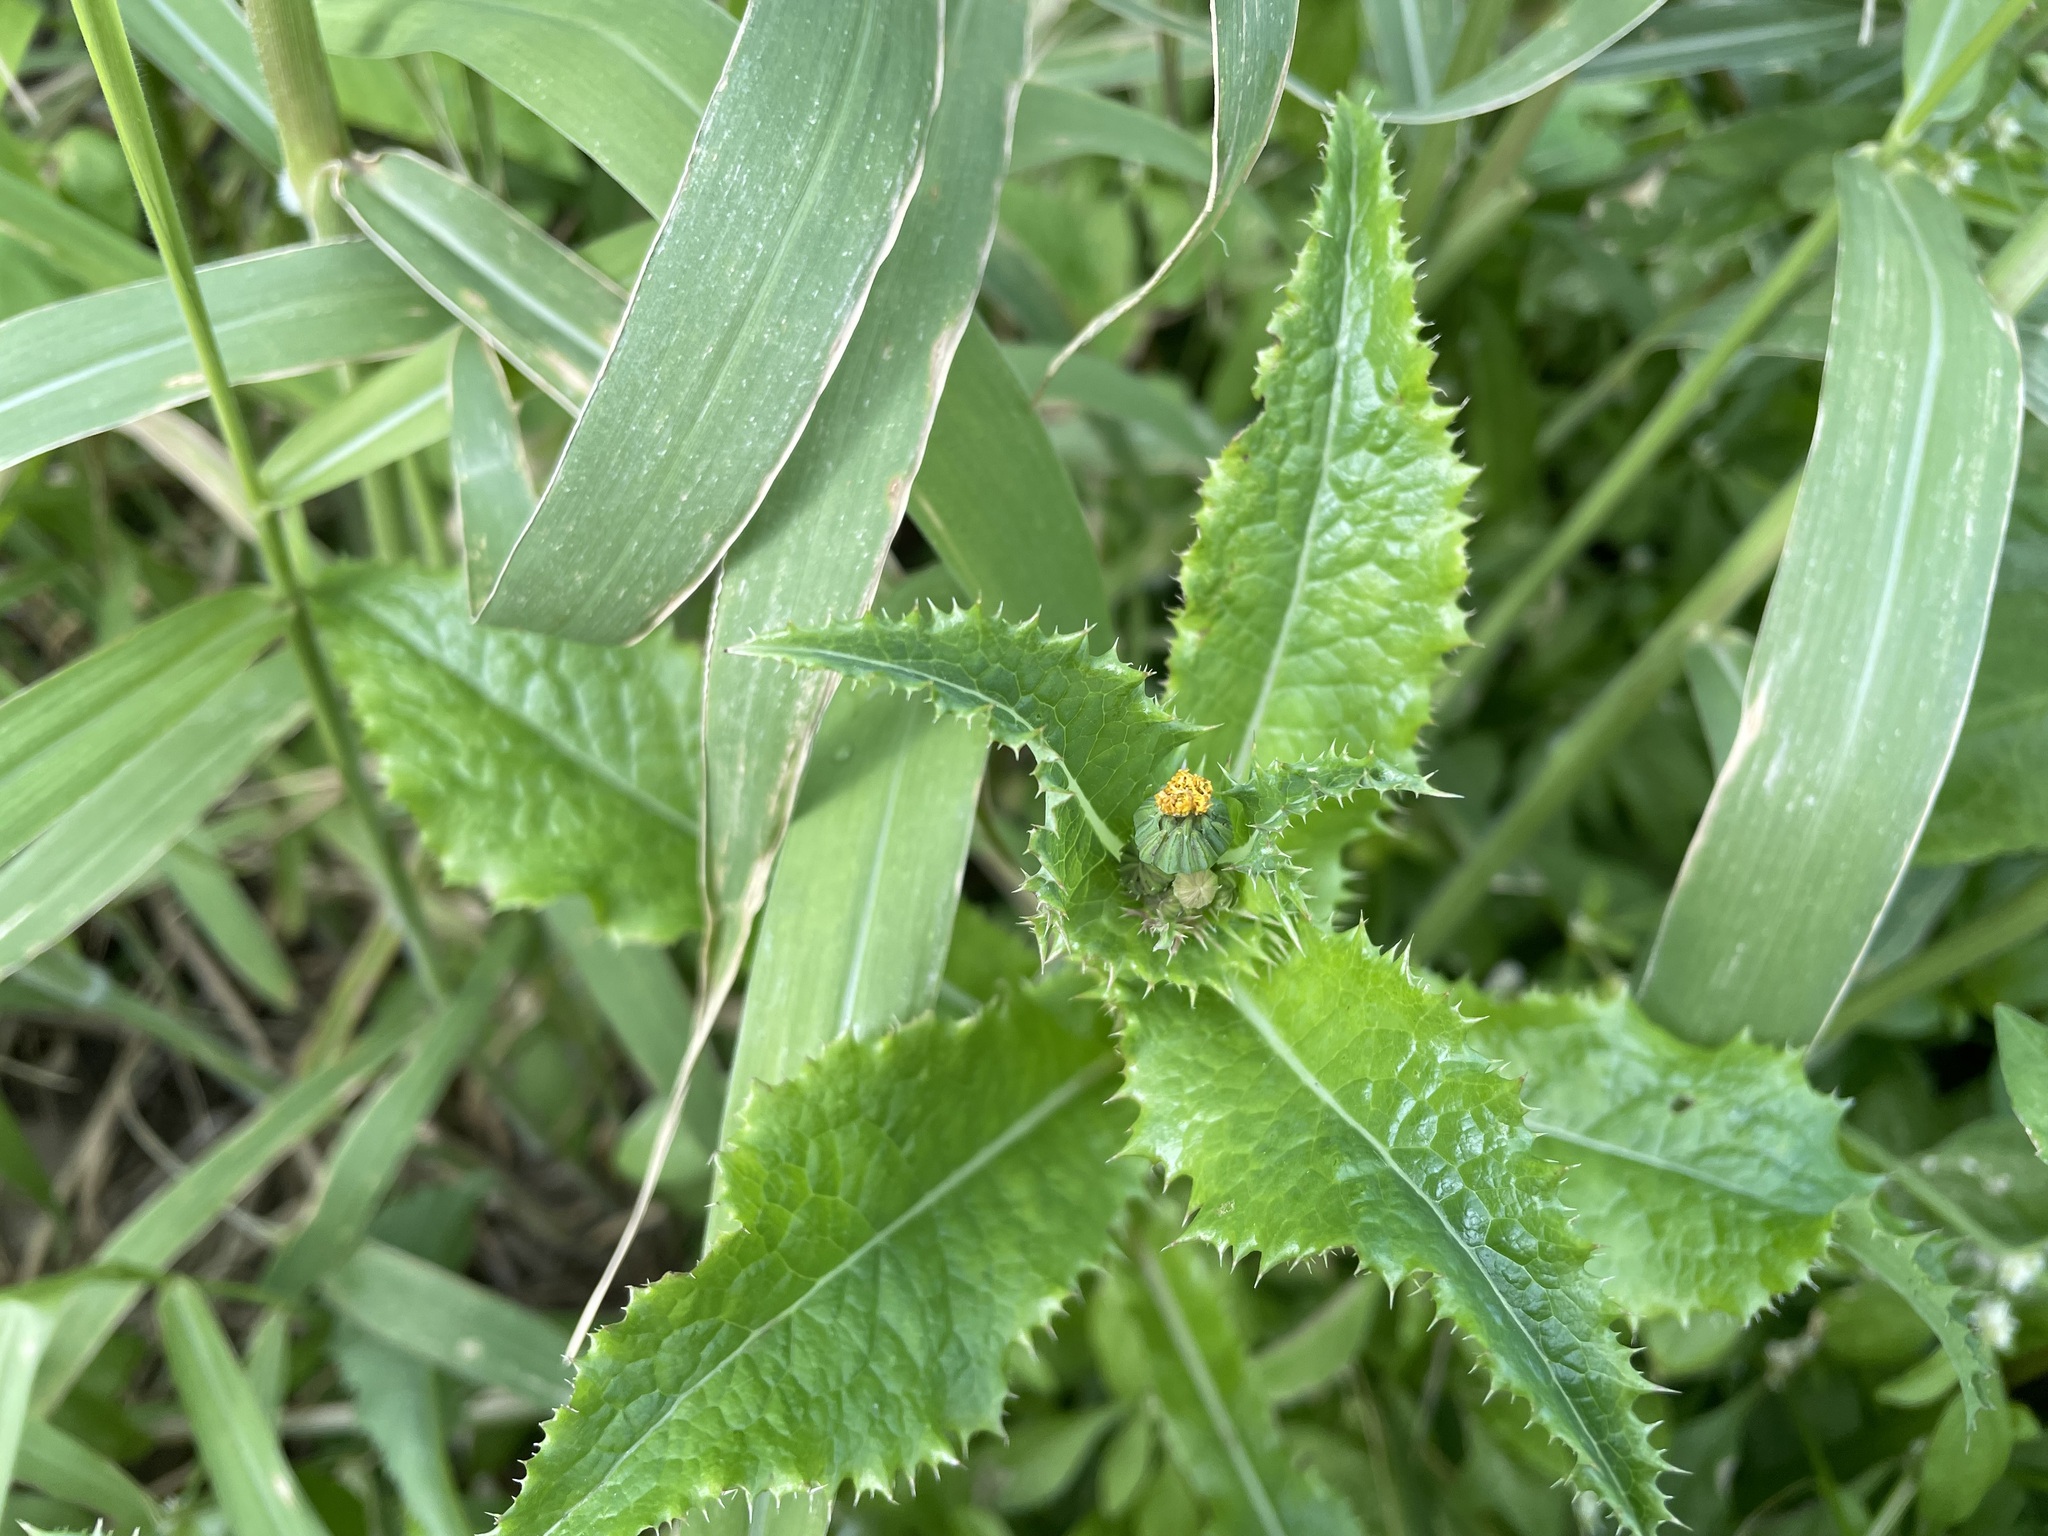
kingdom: Plantae
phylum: Tracheophyta
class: Magnoliopsida
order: Asterales
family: Asteraceae
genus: Sonchus
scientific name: Sonchus asper
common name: Prickly sow-thistle
